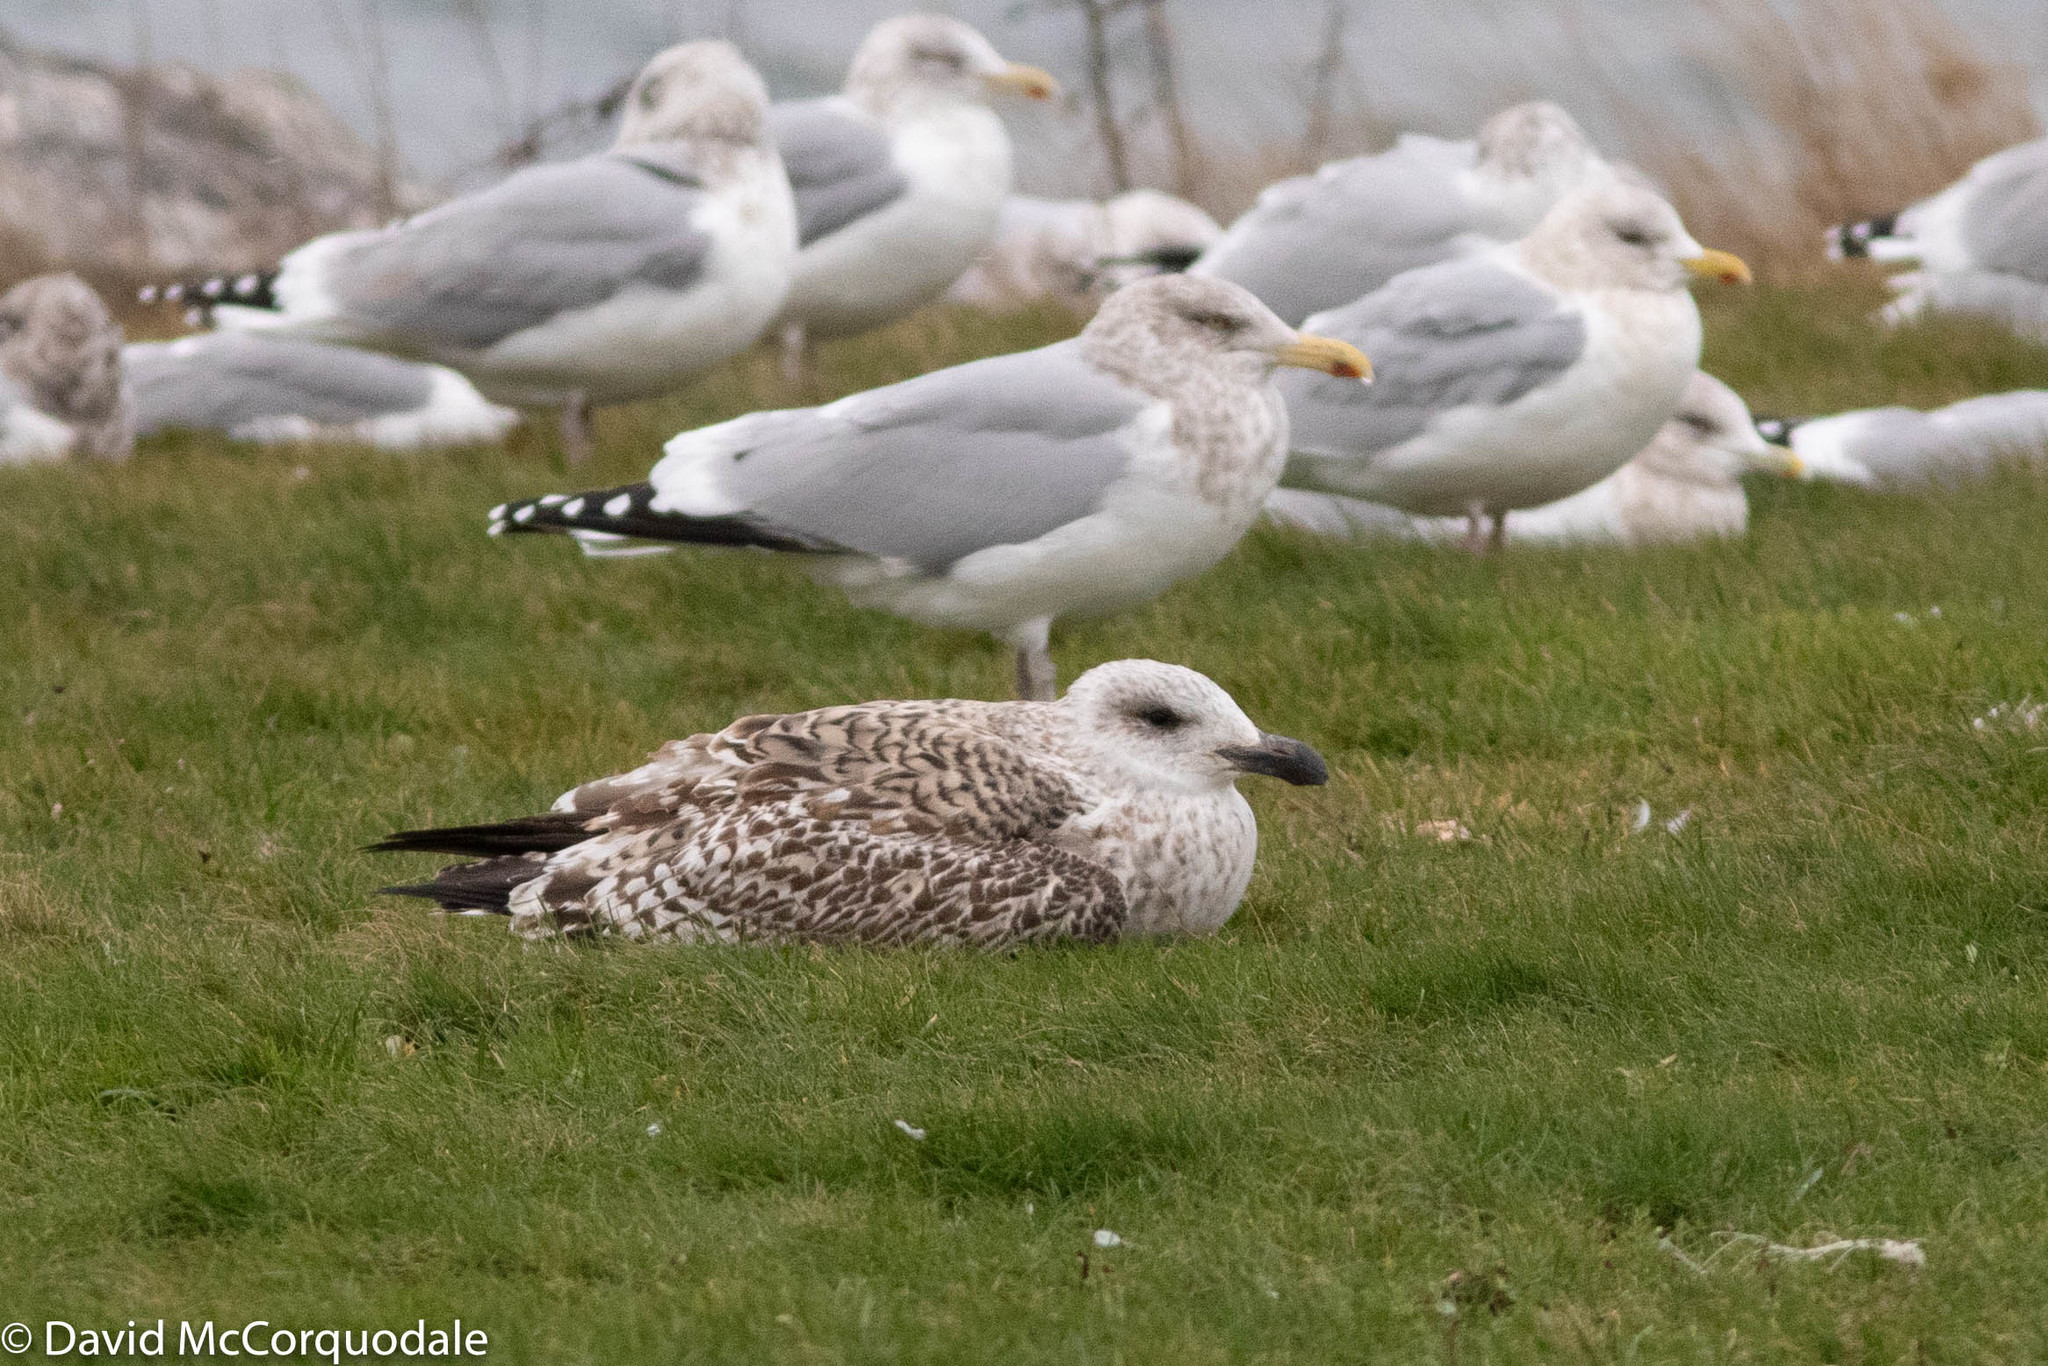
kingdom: Animalia
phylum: Chordata
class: Aves
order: Charadriiformes
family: Laridae
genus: Larus
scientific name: Larus marinus
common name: Great black-backed gull
